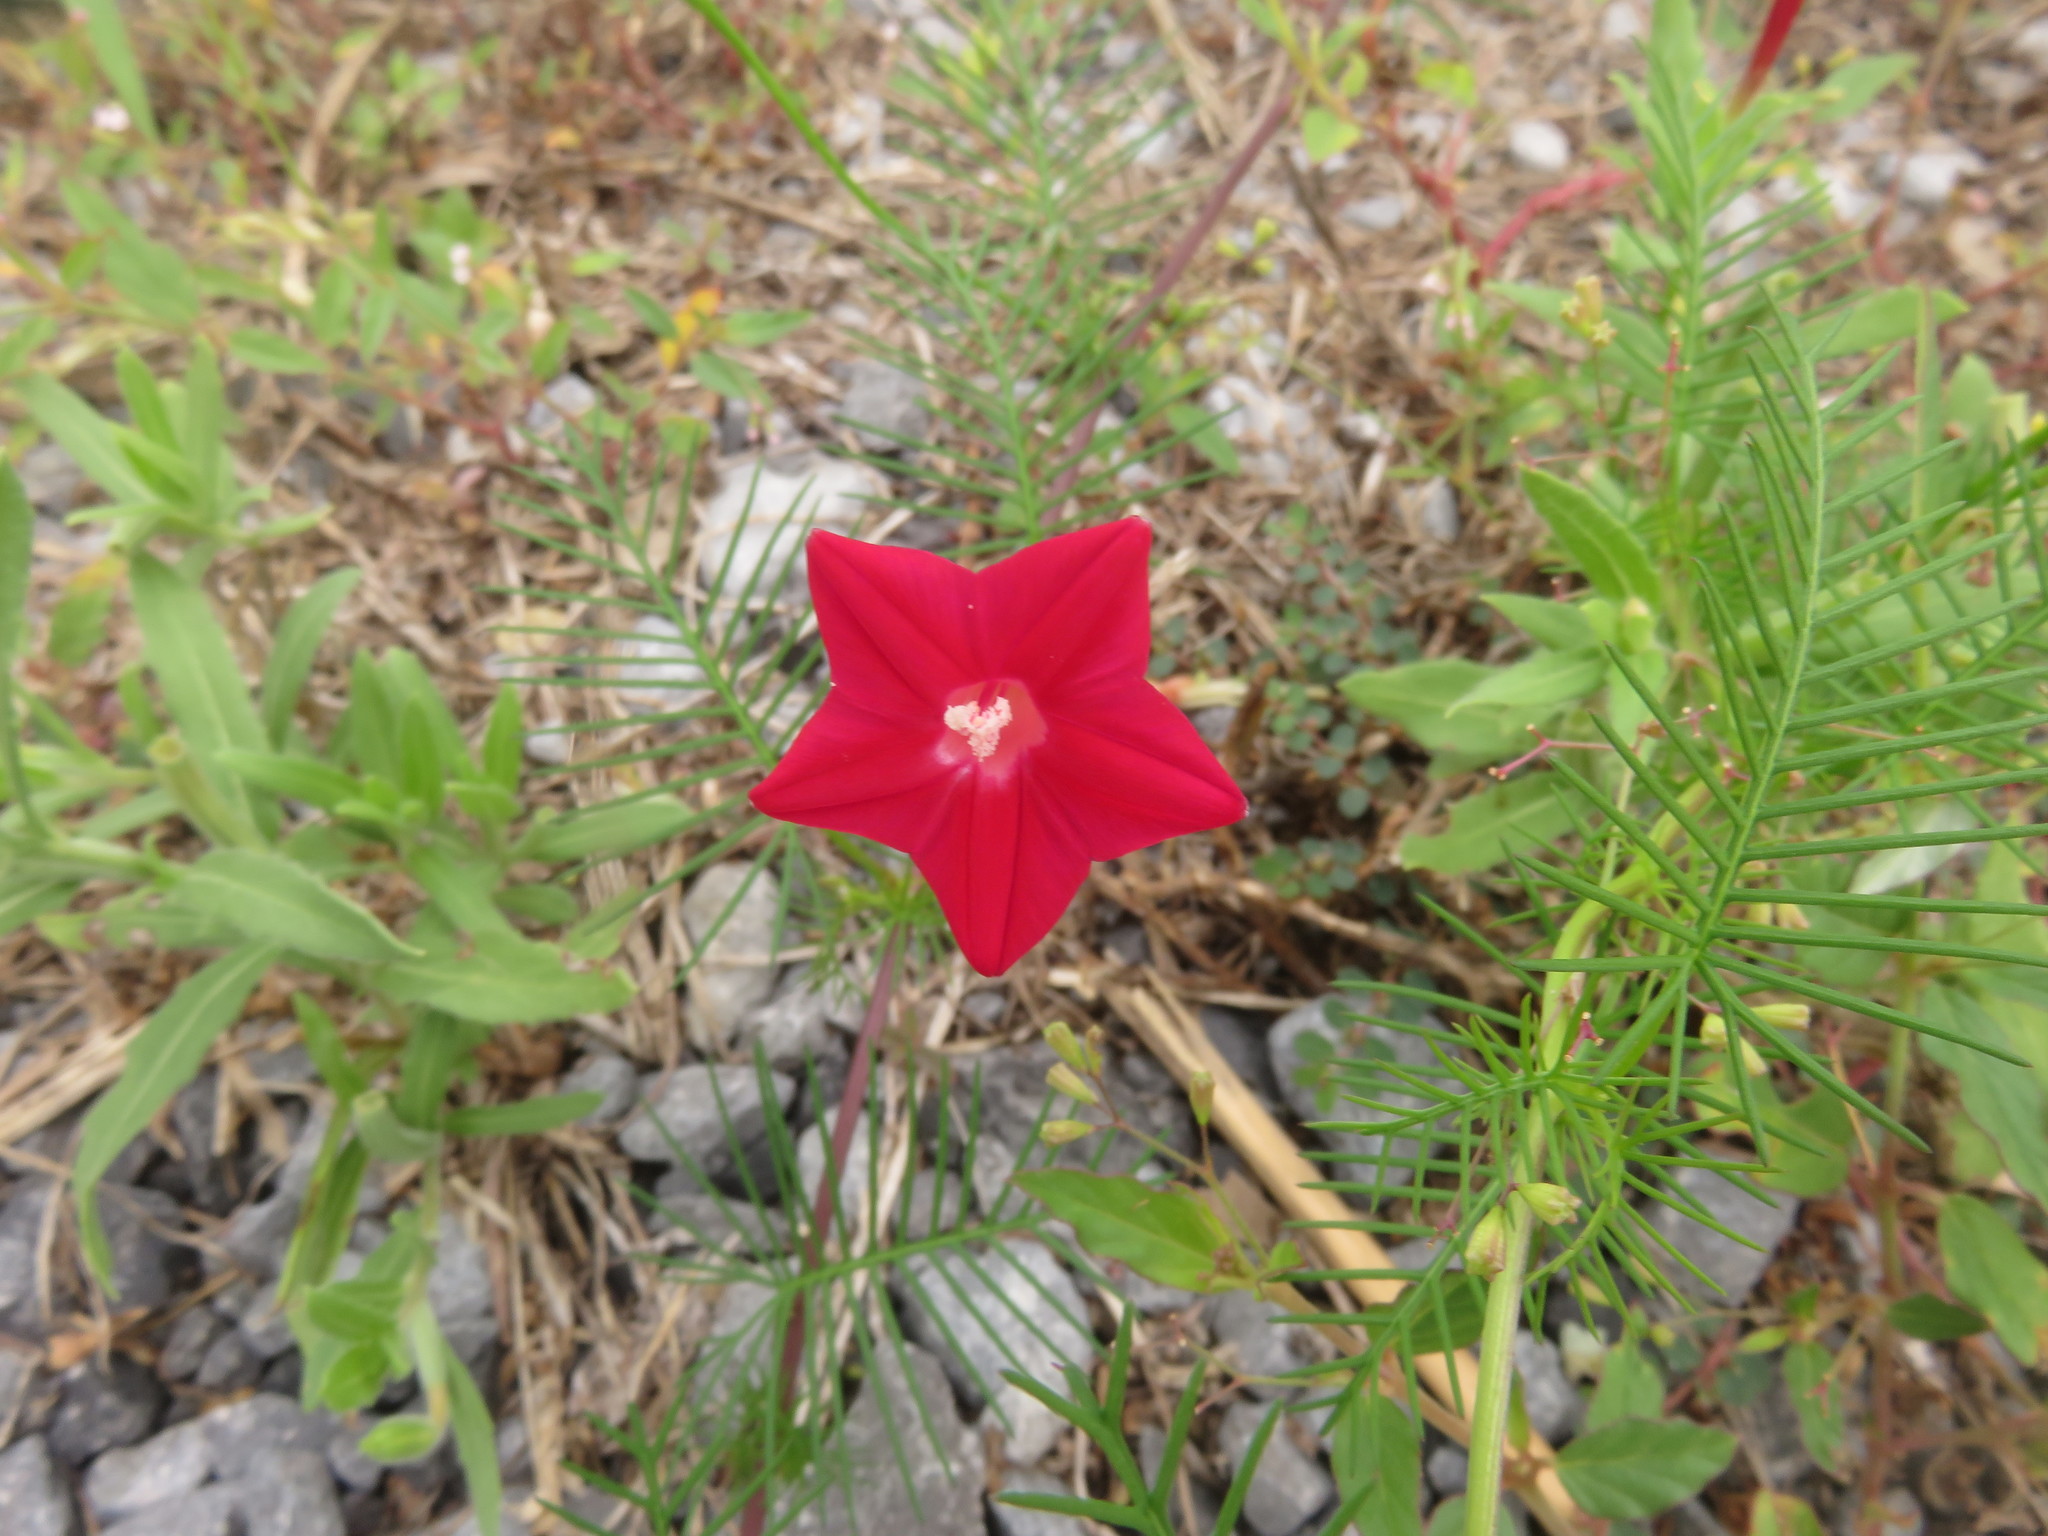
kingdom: Plantae
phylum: Tracheophyta
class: Magnoliopsida
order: Solanales
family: Convolvulaceae
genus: Ipomoea
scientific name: Ipomoea quamoclit
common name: Cypress vine
